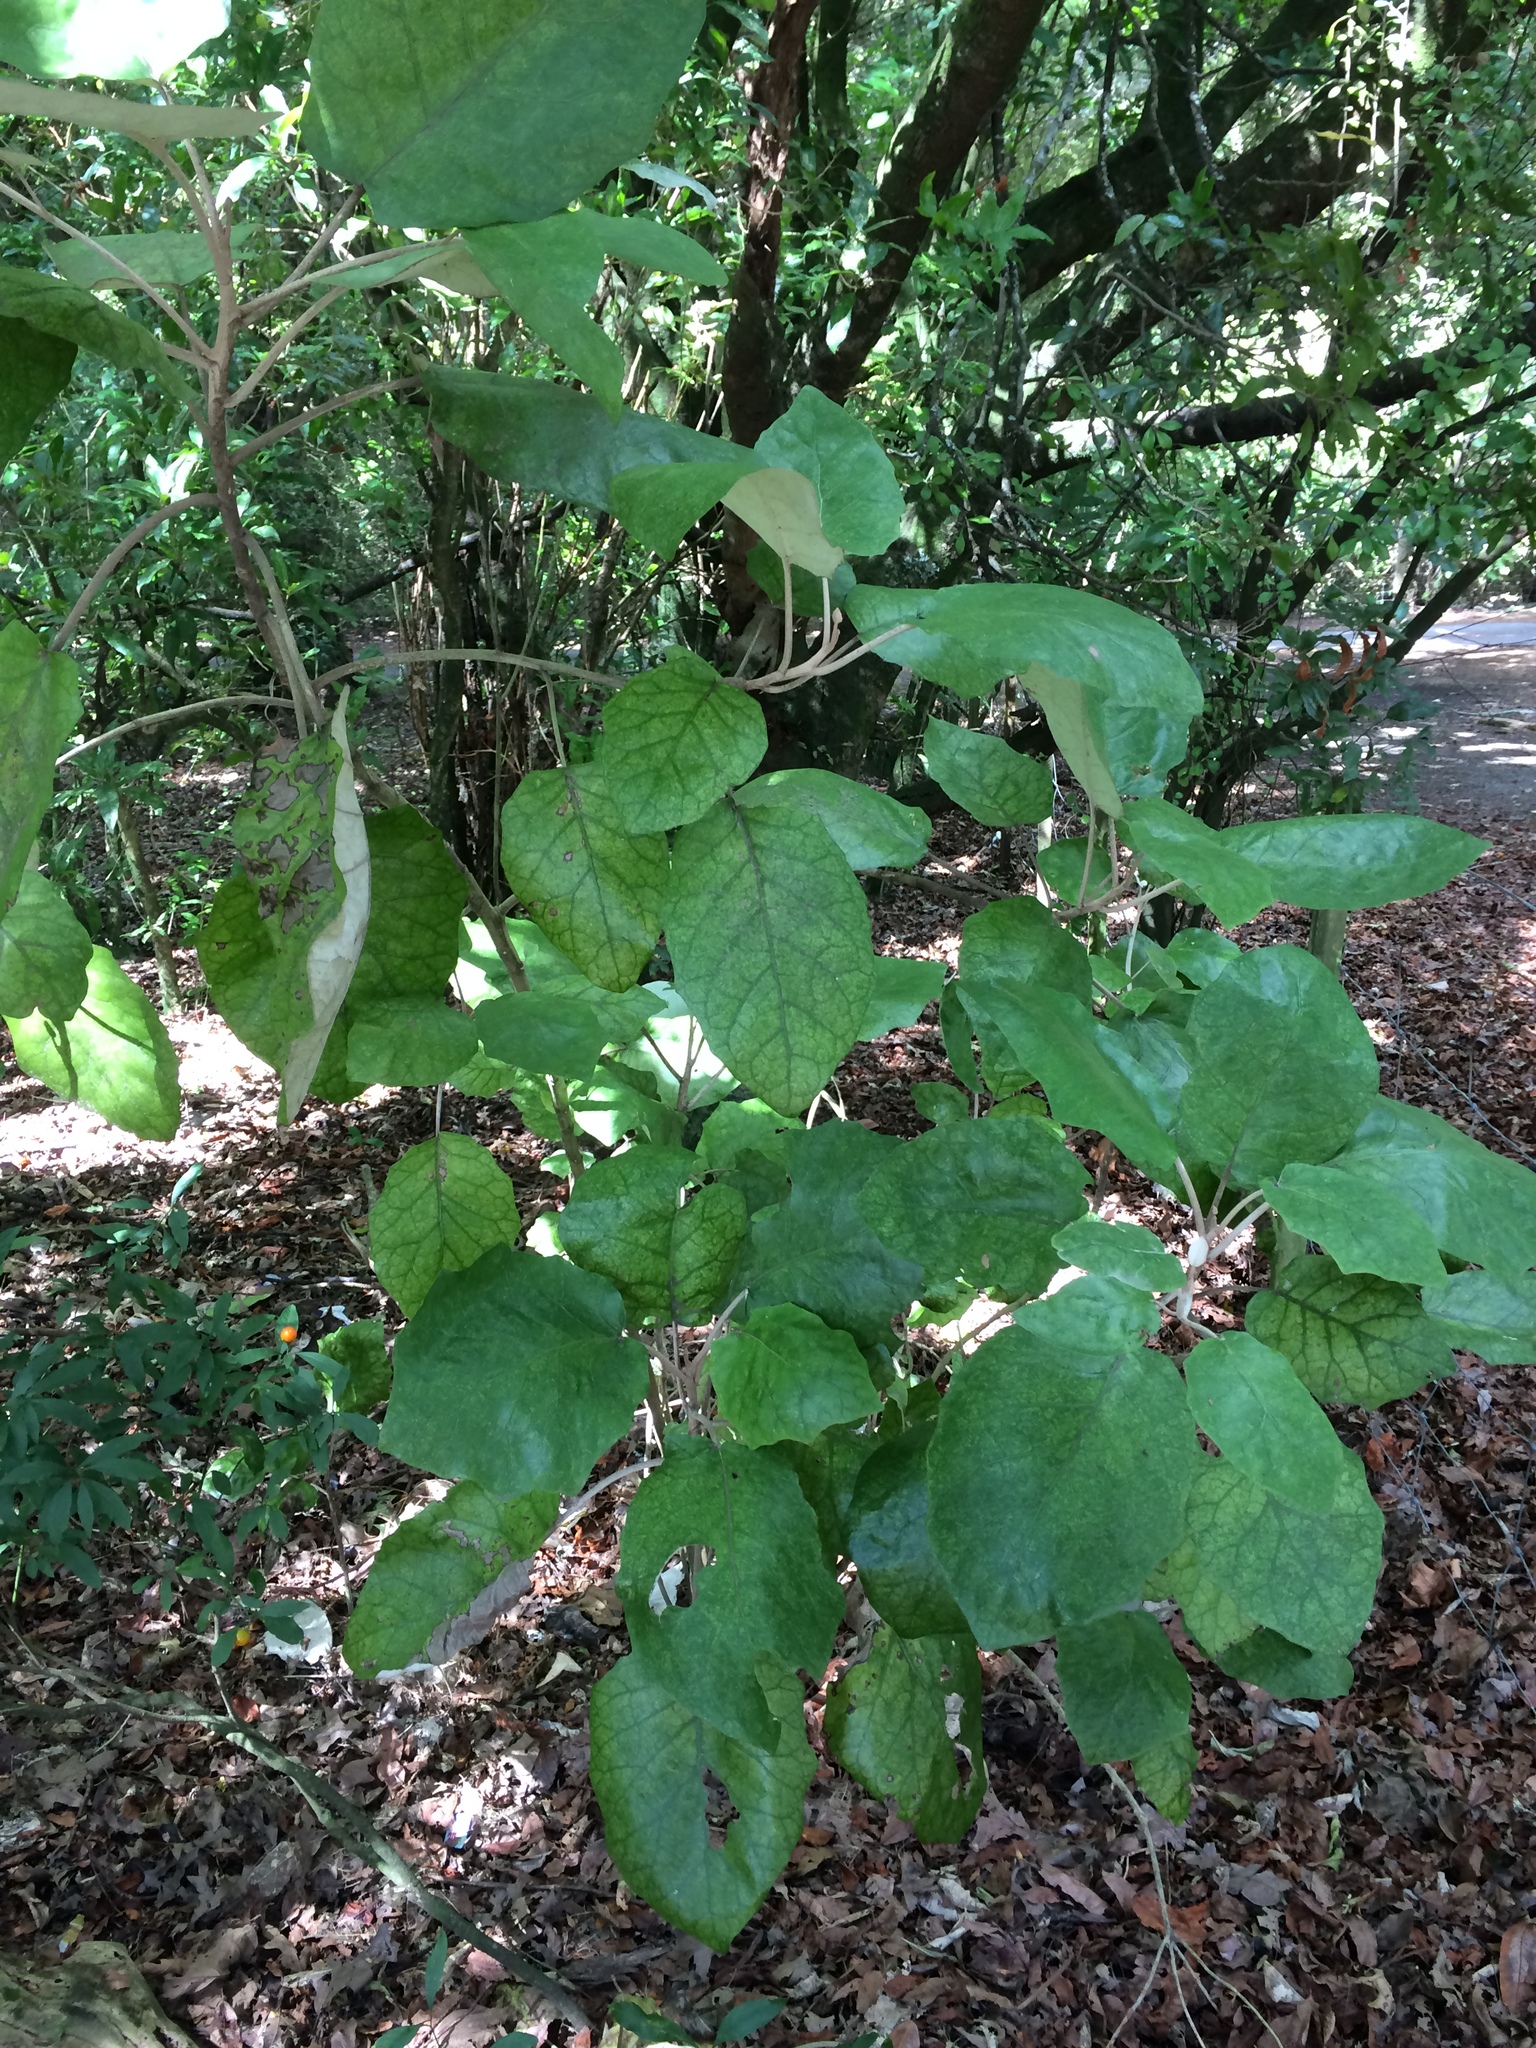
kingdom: Plantae
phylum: Tracheophyta
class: Magnoliopsida
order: Asterales
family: Asteraceae
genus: Brachyglottis
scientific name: Brachyglottis repanda
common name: Hedge ragwort
